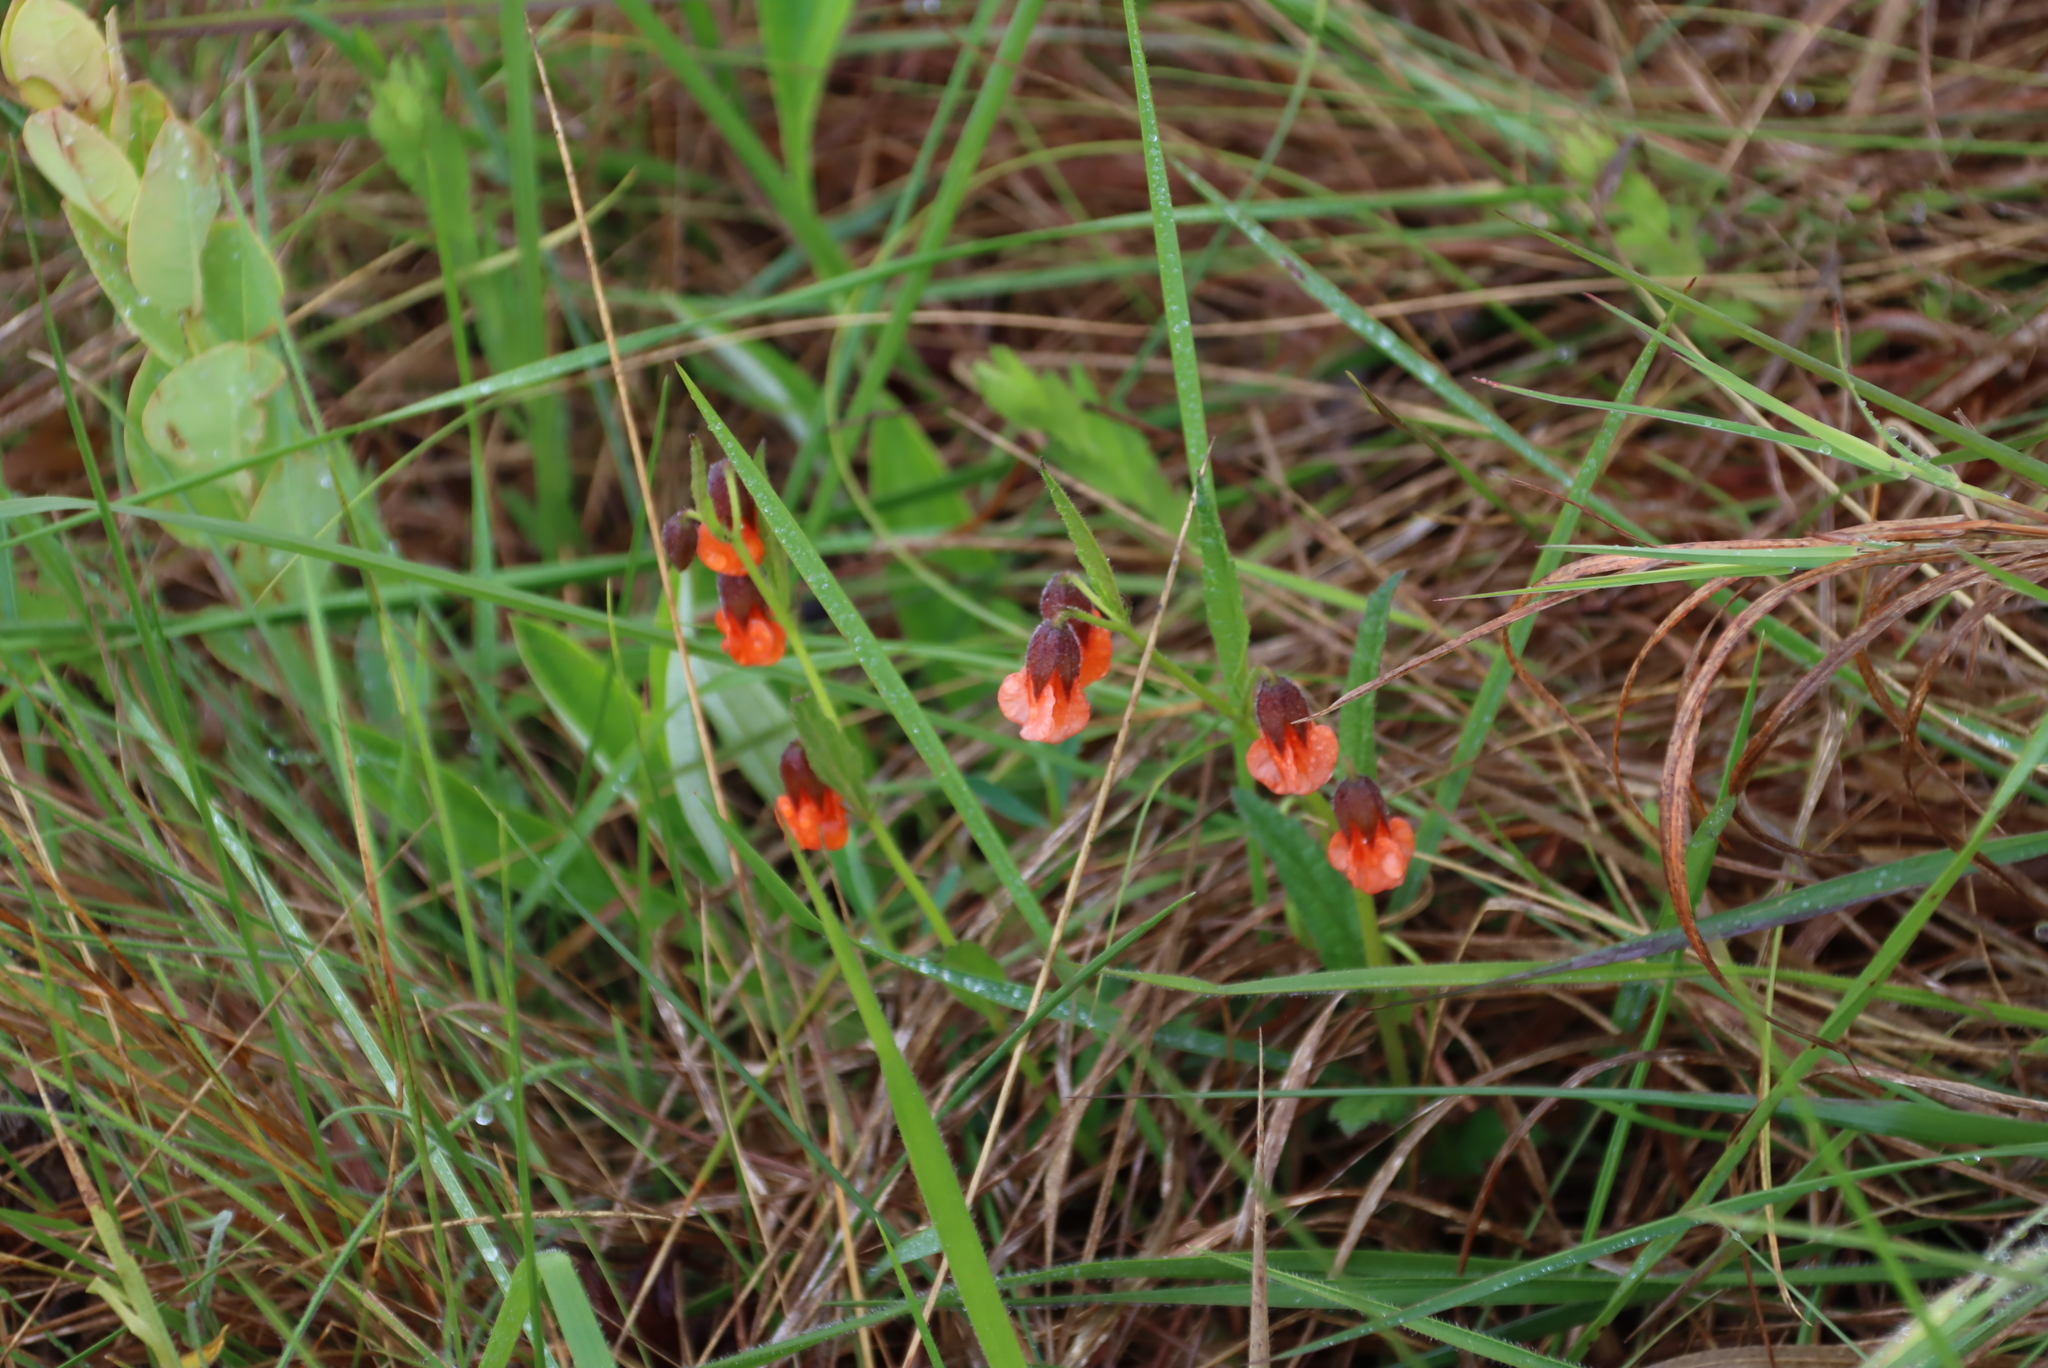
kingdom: Plantae
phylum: Tracheophyta
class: Magnoliopsida
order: Malvales
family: Malvaceae
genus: Hermannia
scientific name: Hermannia cristata
